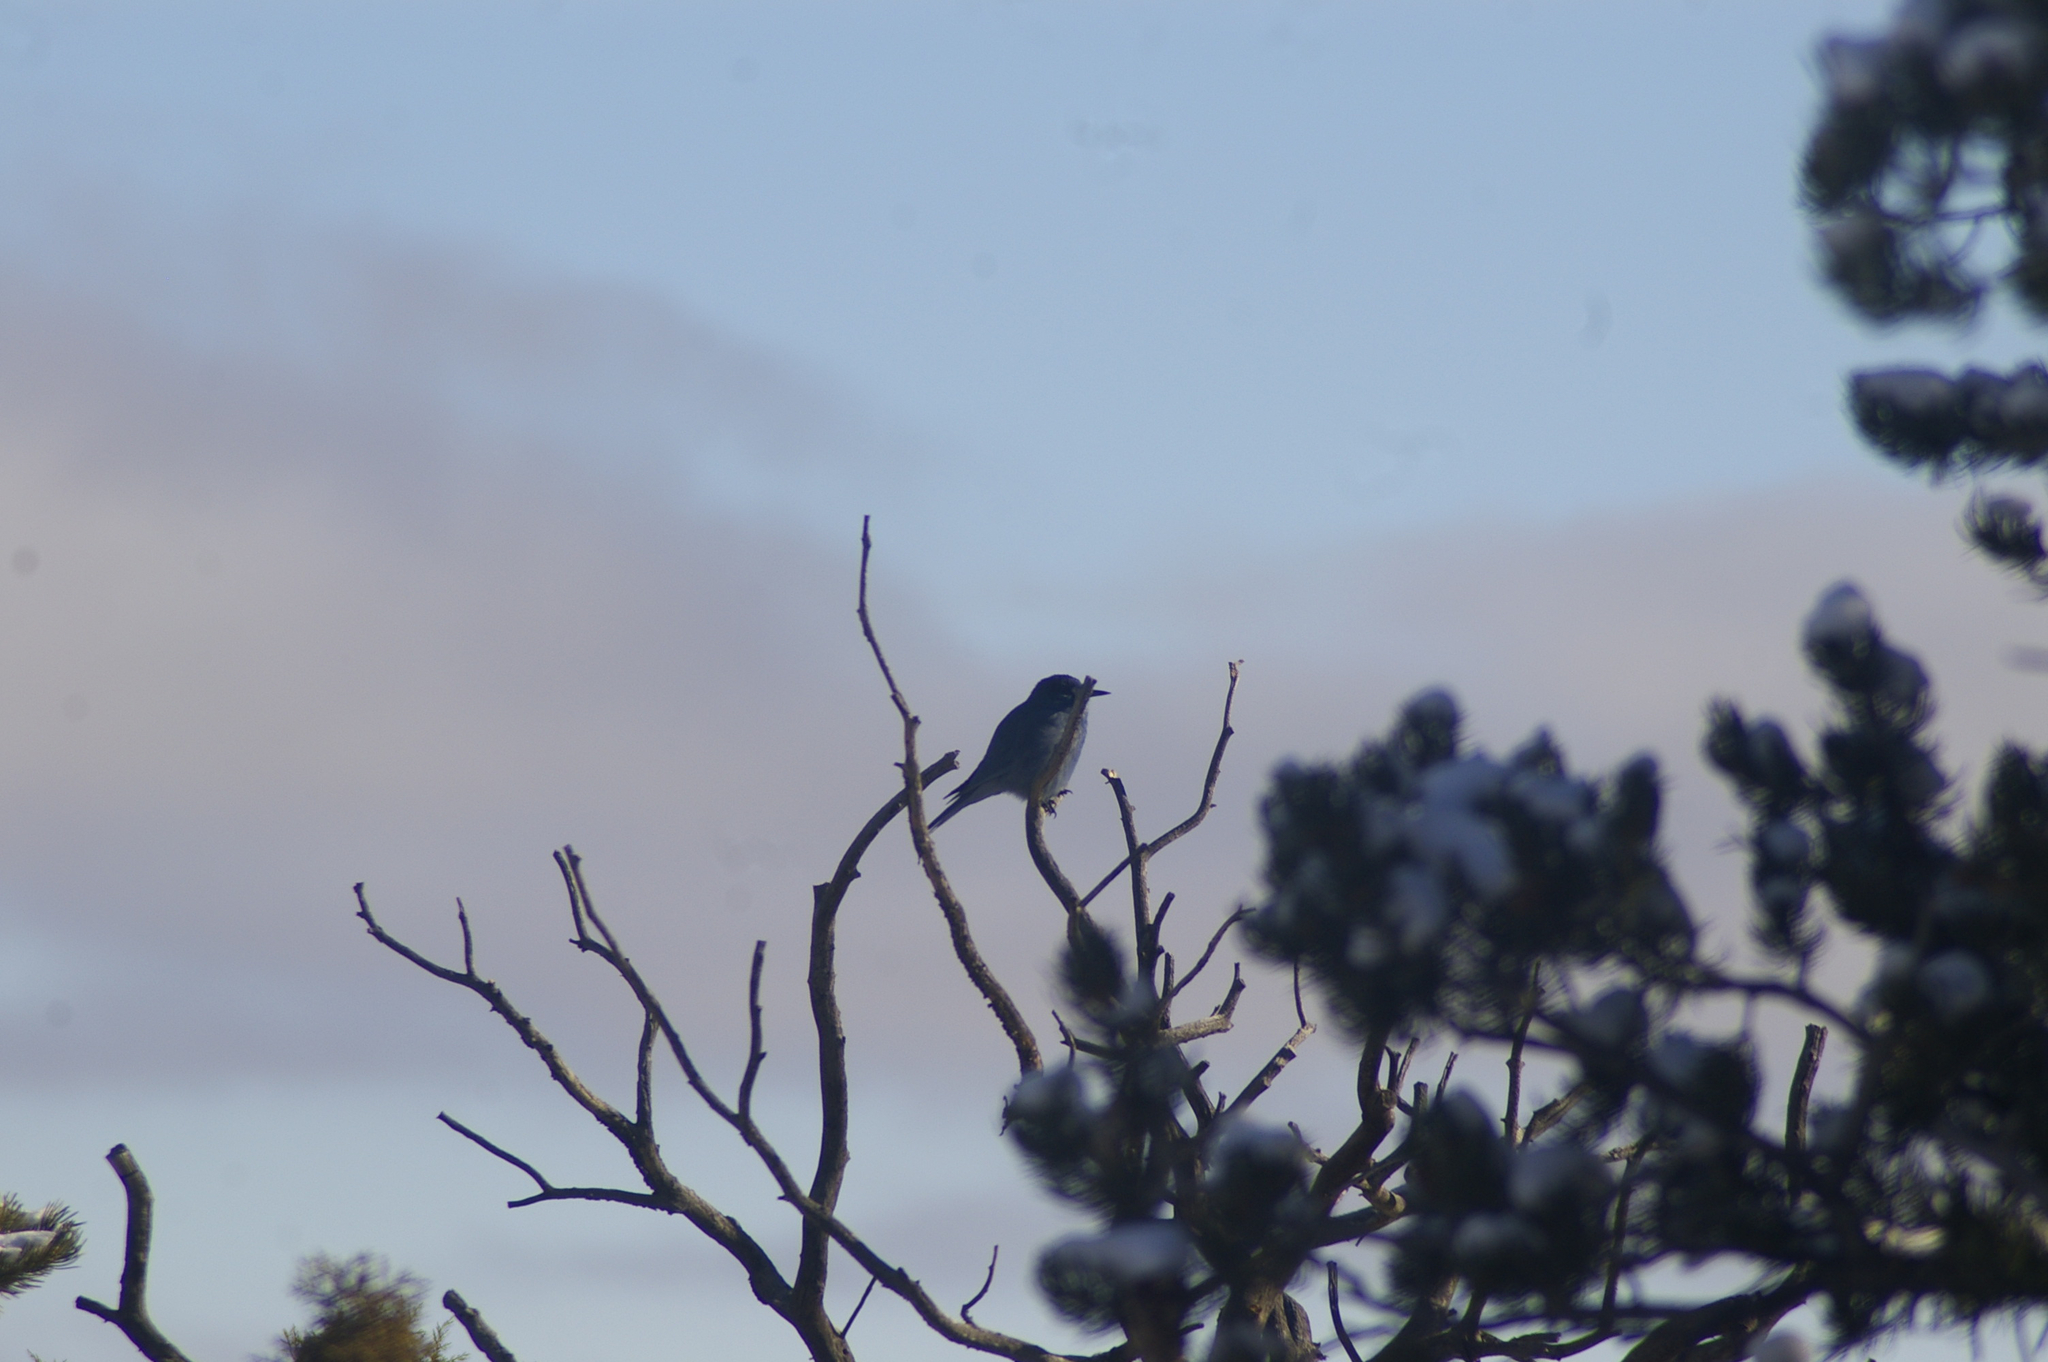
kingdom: Animalia
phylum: Chordata
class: Aves
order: Passeriformes
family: Corvidae
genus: Gymnorhinus
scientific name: Gymnorhinus cyanocephalus
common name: Pinyon jay
